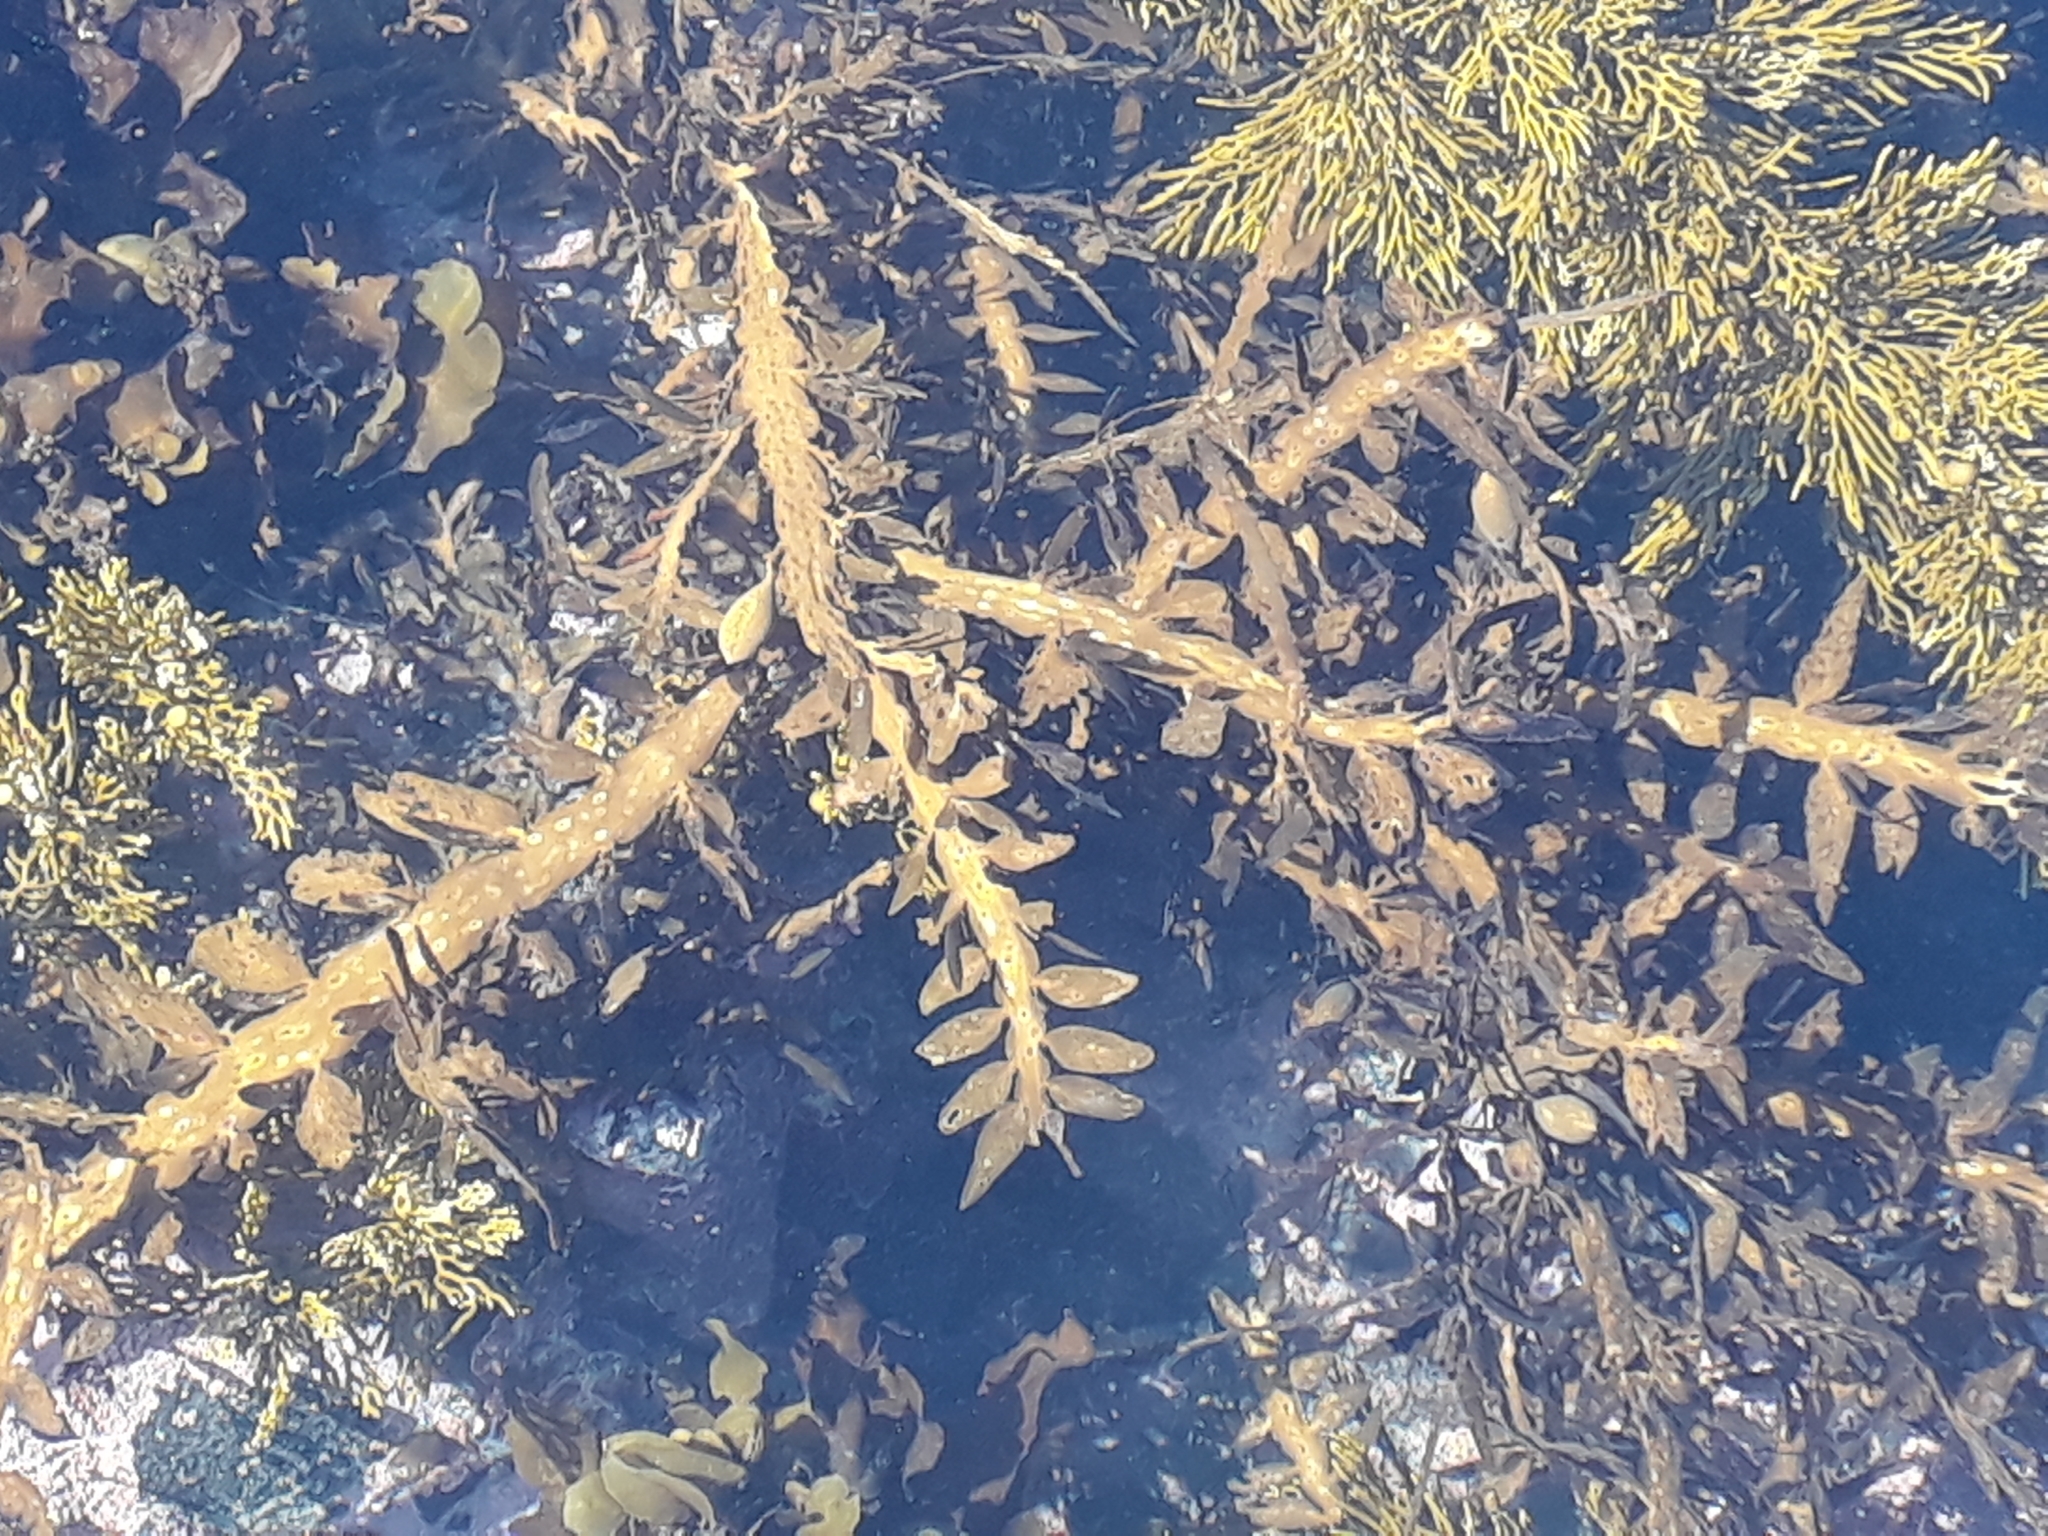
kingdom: Chromista
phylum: Ochrophyta
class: Phaeophyceae
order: Fucales
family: Sargassaceae
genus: Carpophyllum
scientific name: Carpophyllum maschalocarpum
